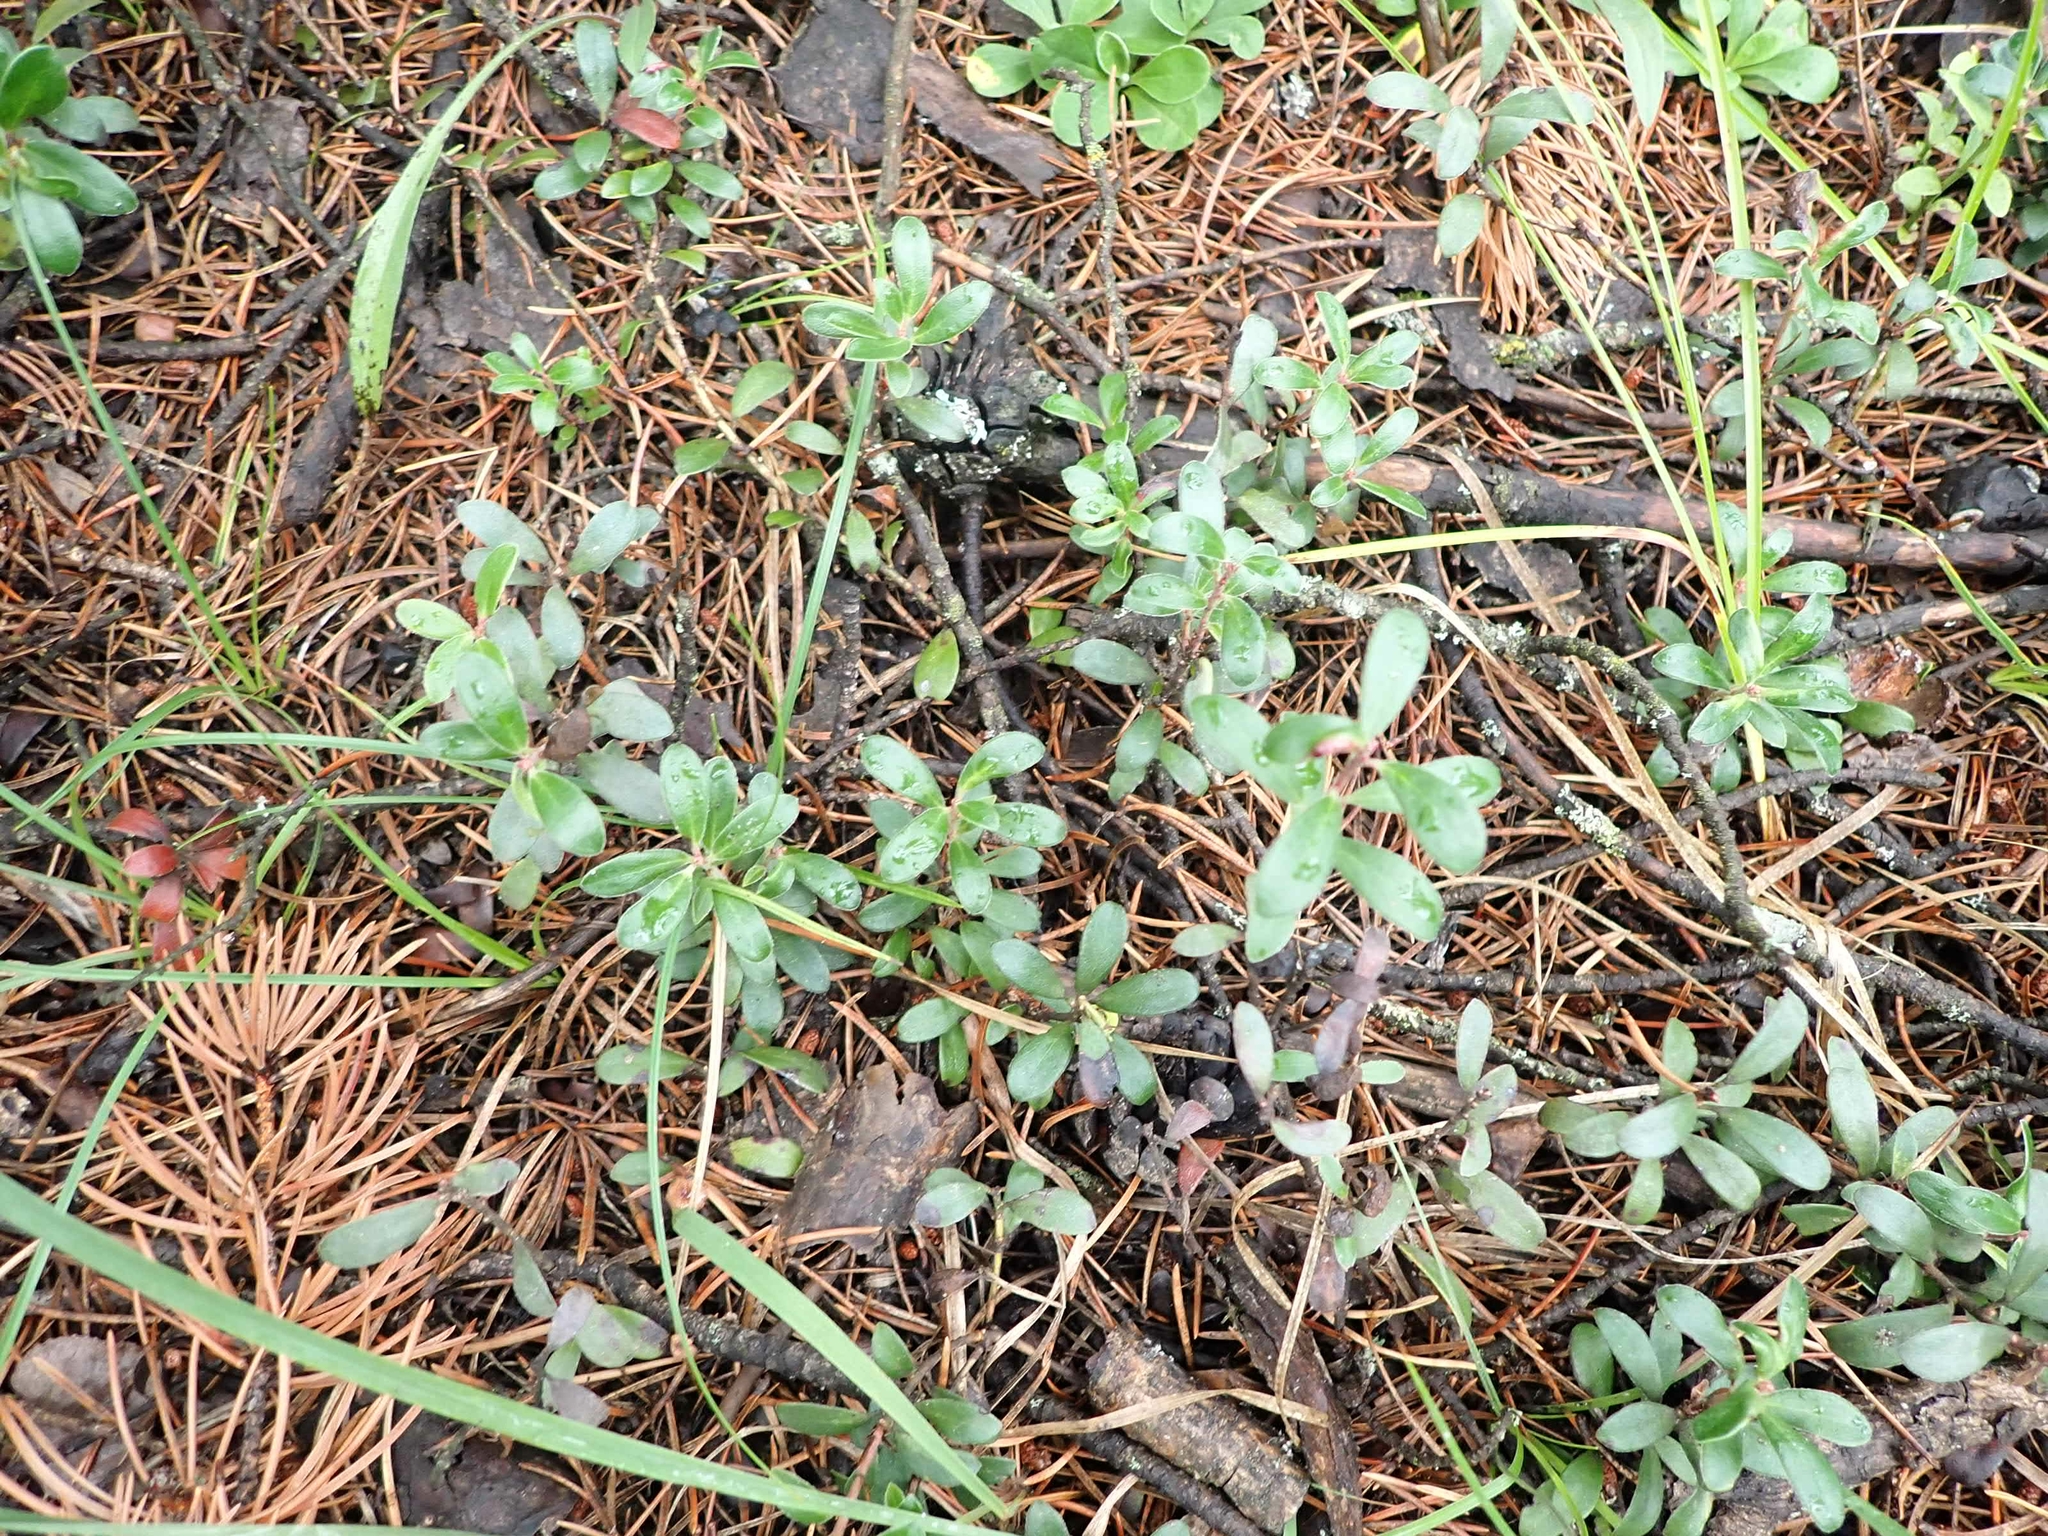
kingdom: Plantae
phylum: Tracheophyta
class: Magnoliopsida
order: Ericales
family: Ericaceae
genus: Arctostaphylos
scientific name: Arctostaphylos uva-ursi
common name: Bearberry
